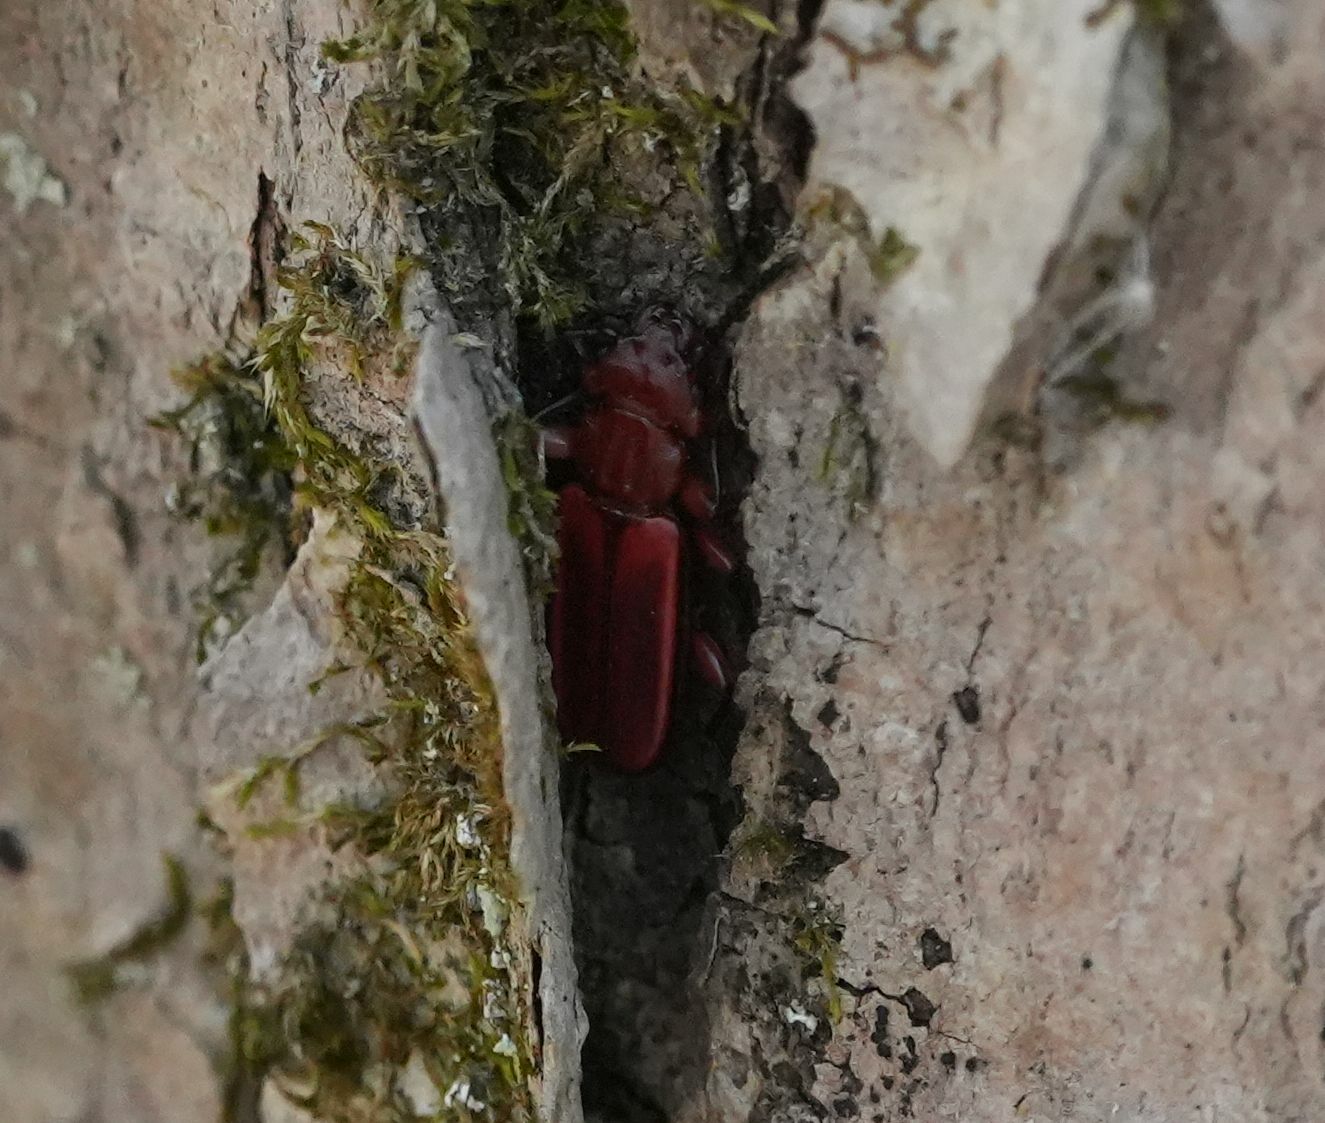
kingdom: Animalia
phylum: Arthropoda
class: Insecta
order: Coleoptera
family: Cucujidae
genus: Cucujus
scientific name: Cucujus clavipes
